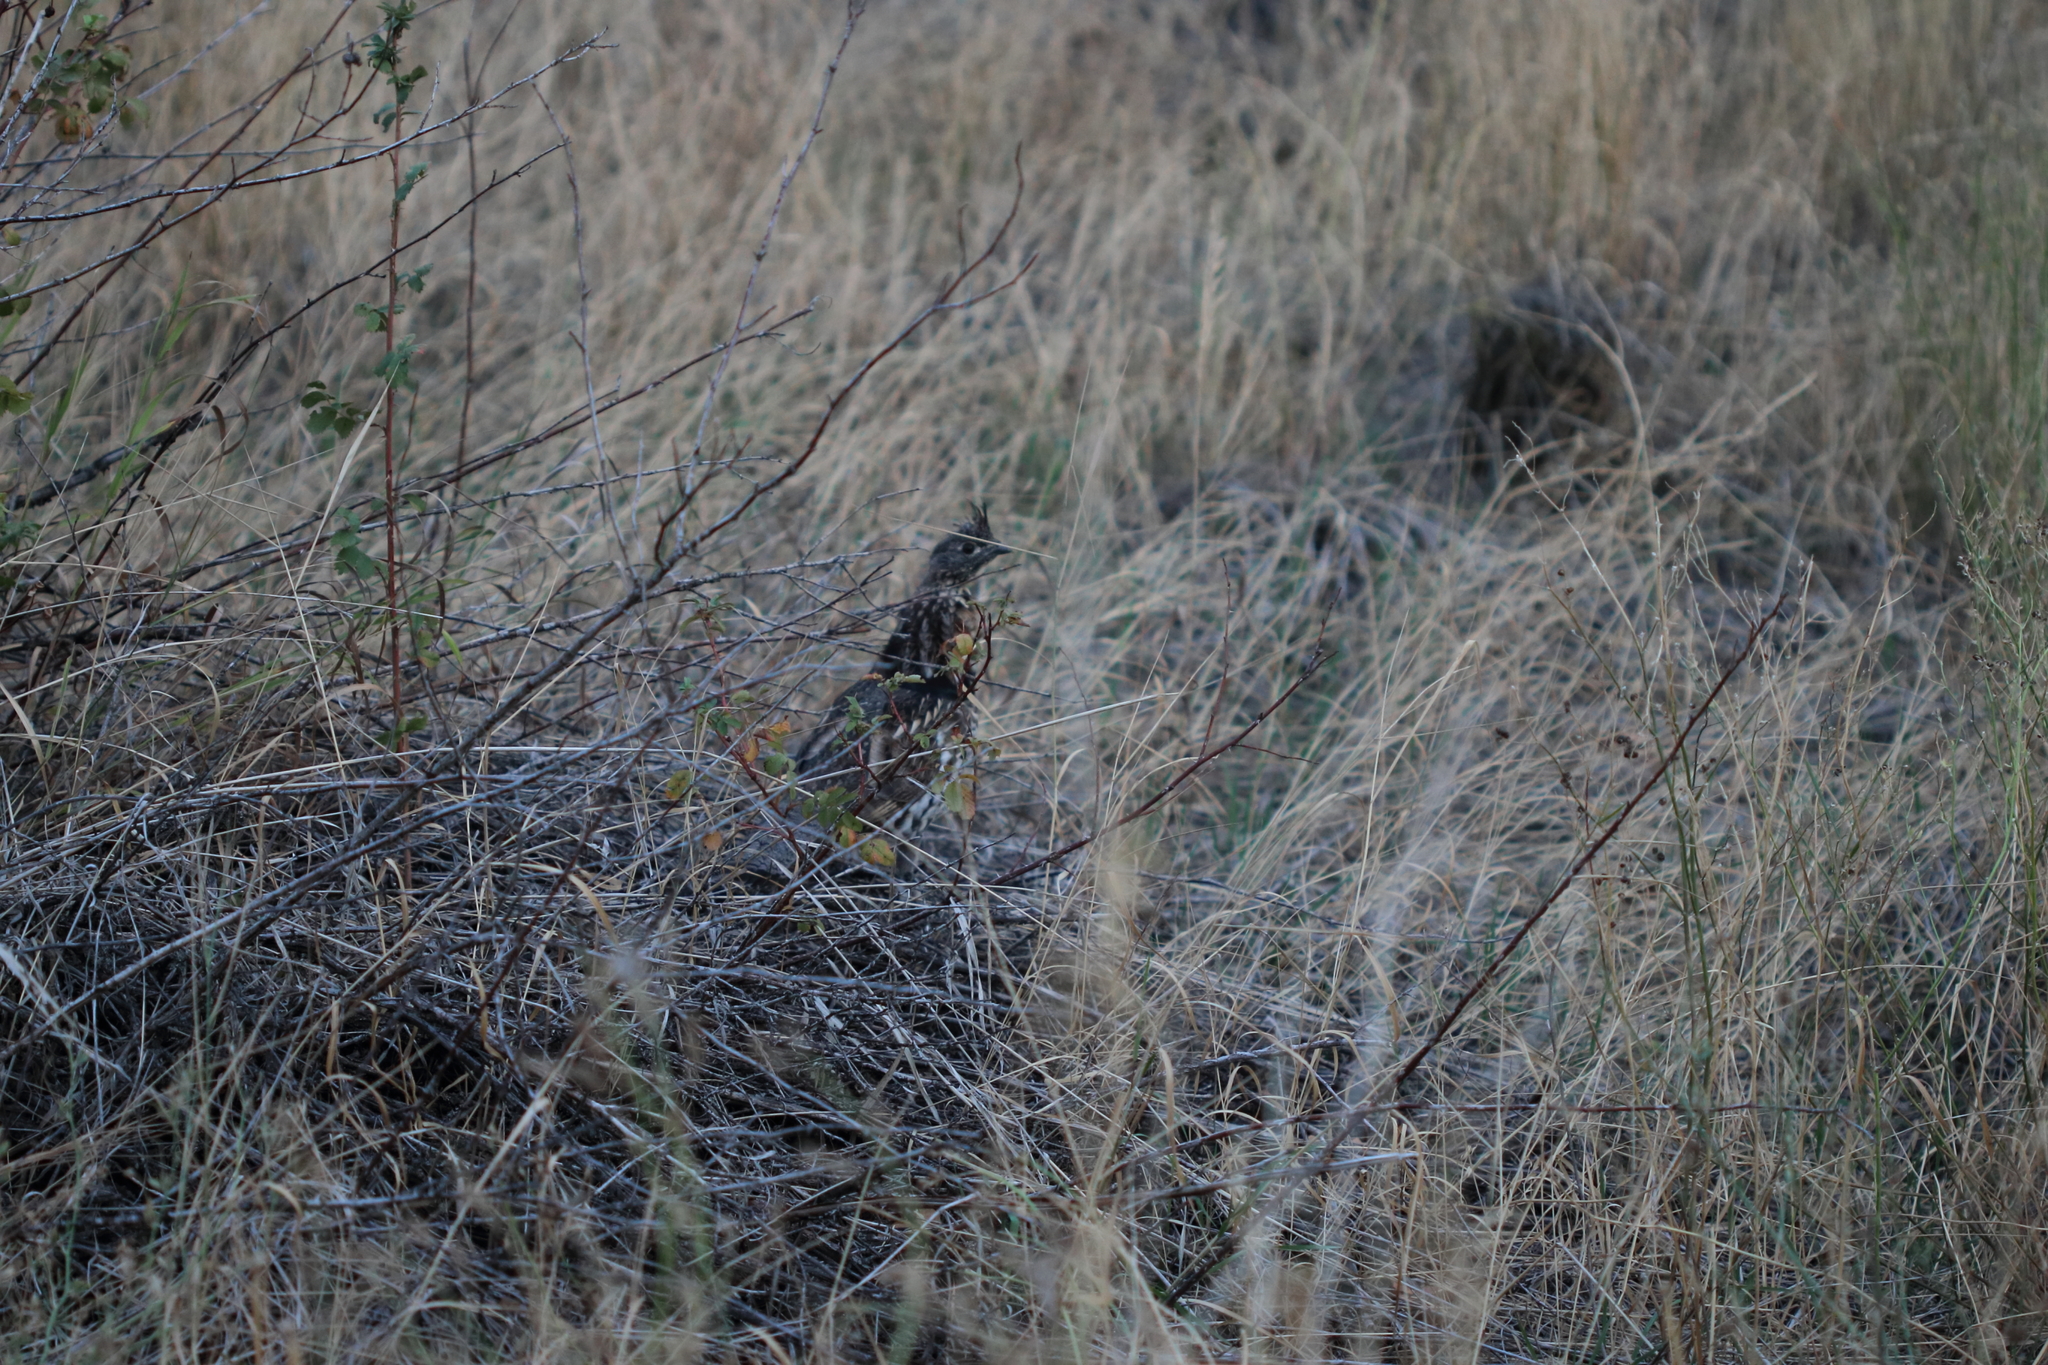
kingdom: Animalia
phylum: Chordata
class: Aves
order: Galliformes
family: Phasianidae
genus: Bonasa
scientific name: Bonasa umbellus
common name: Ruffed grouse
